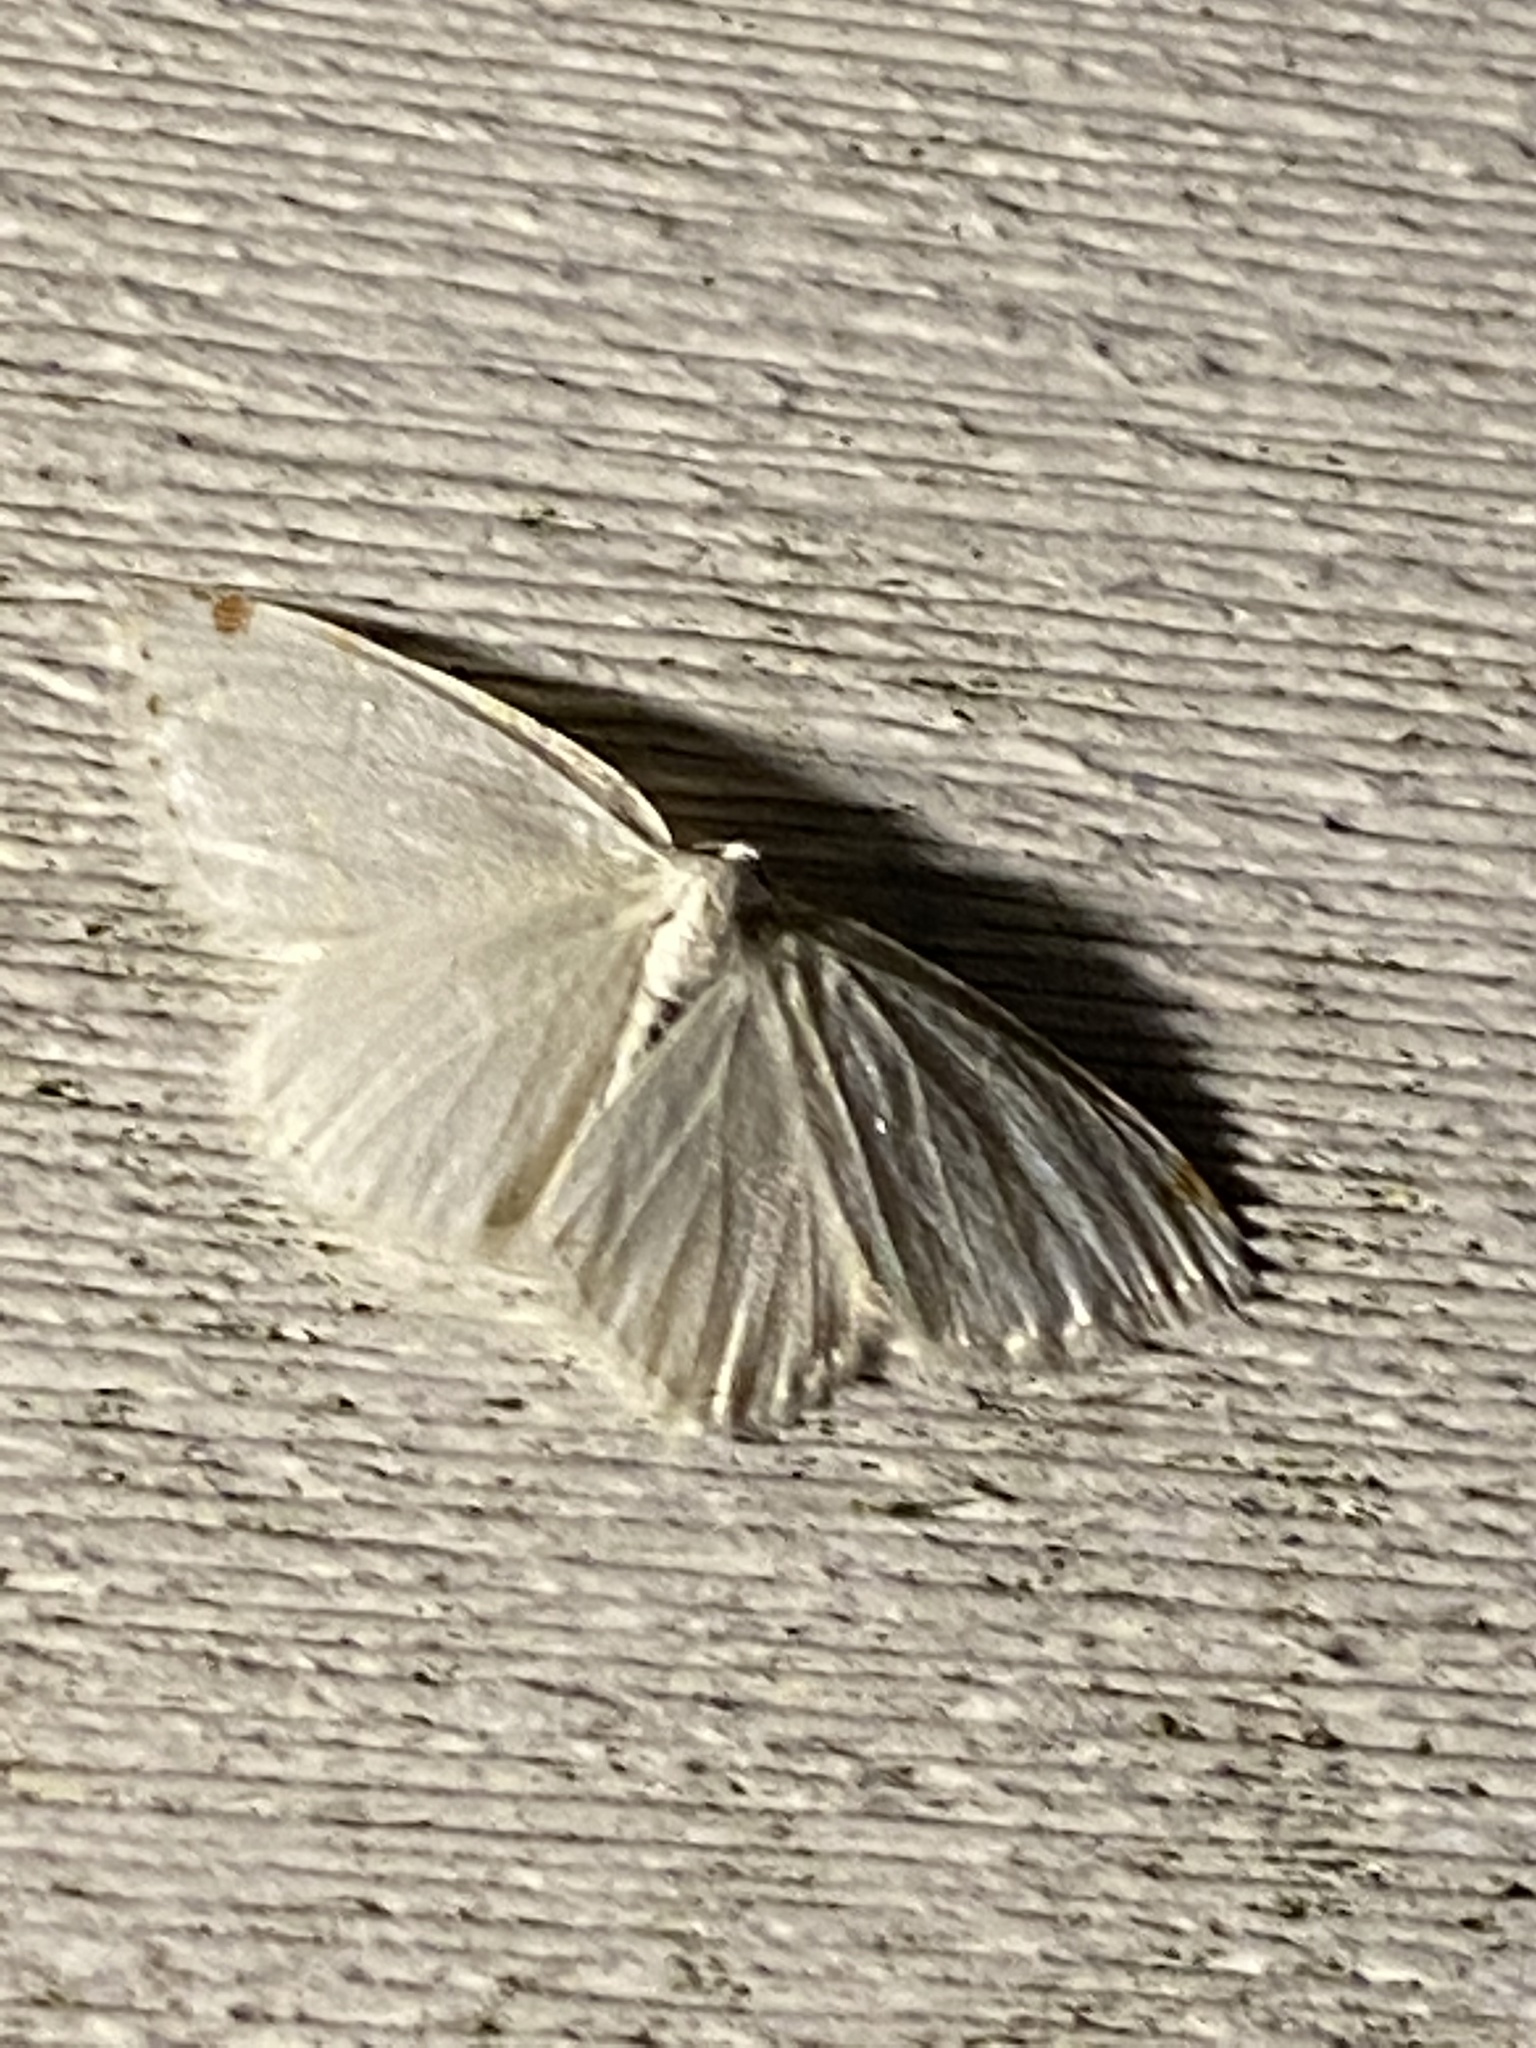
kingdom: Animalia
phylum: Arthropoda
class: Insecta
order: Lepidoptera
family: Geometridae
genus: Macaria
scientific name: Macaria pustularia
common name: Lesser maple spanworm moth
